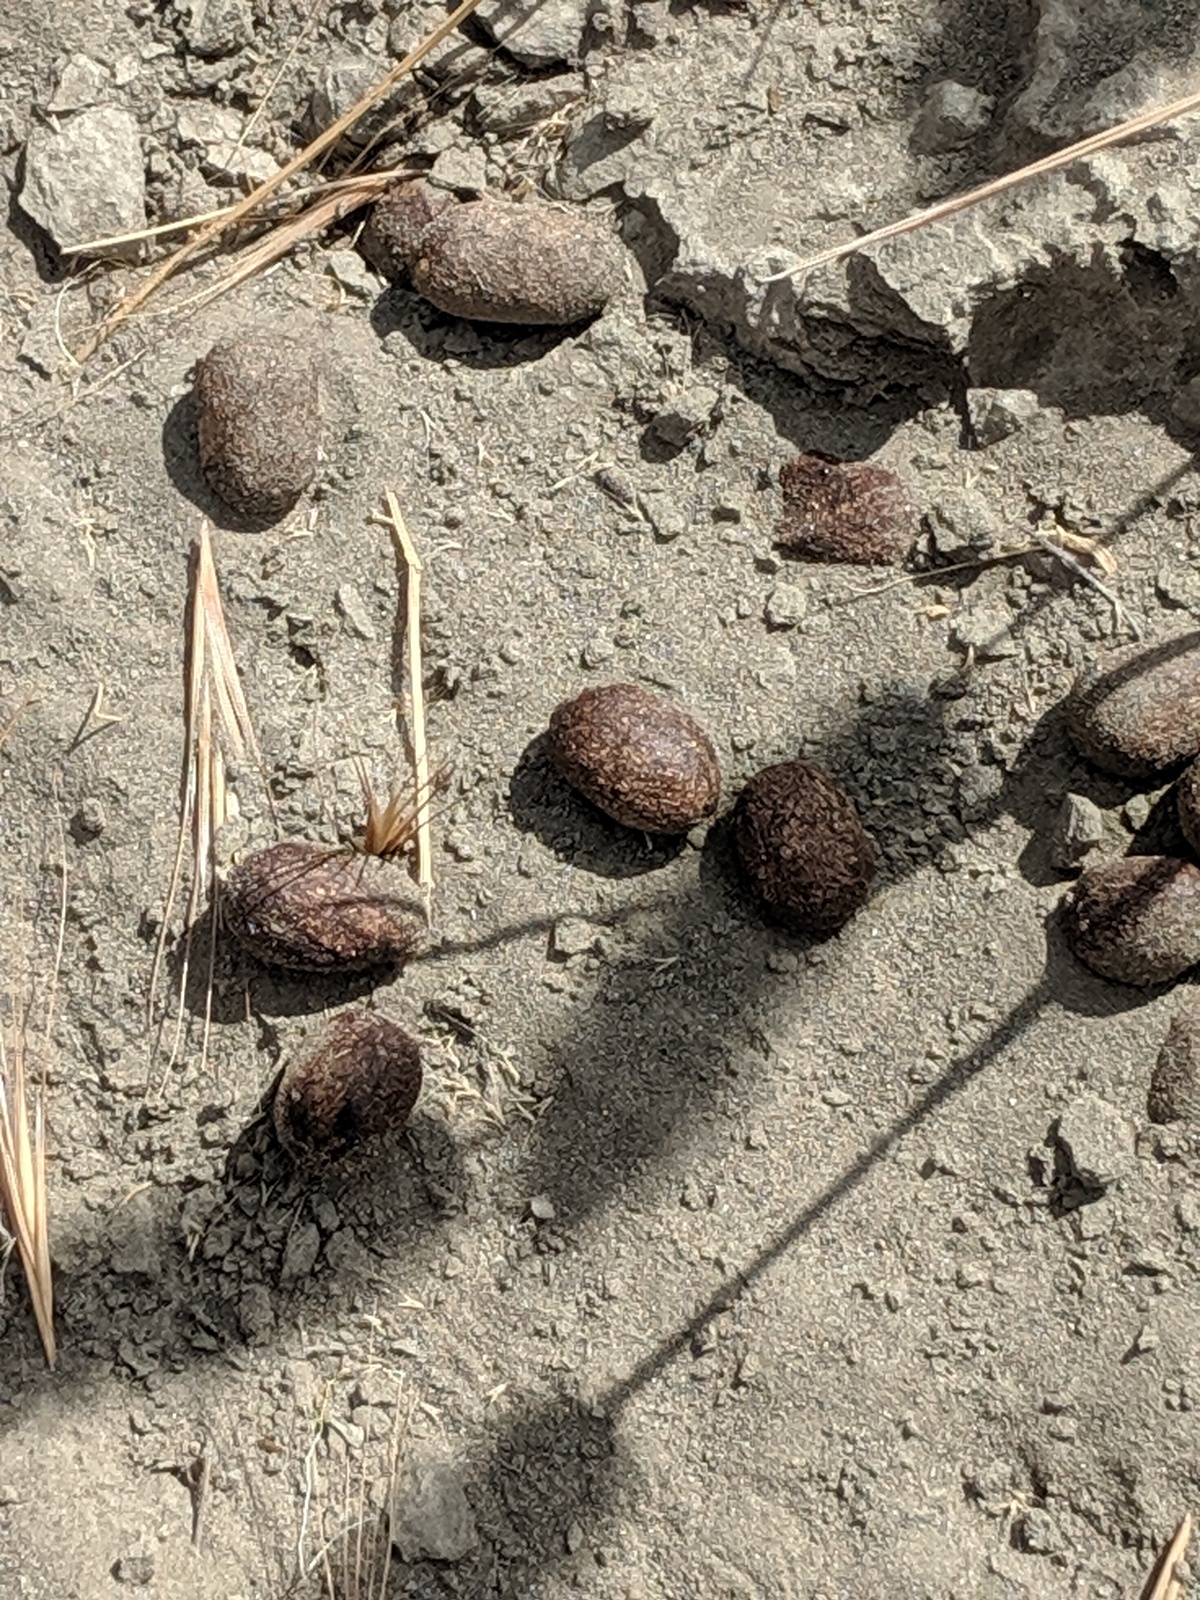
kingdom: Animalia
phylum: Chordata
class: Mammalia
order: Artiodactyla
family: Cervidae
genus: Cervus
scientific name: Cervus elaphus
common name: Red deer
